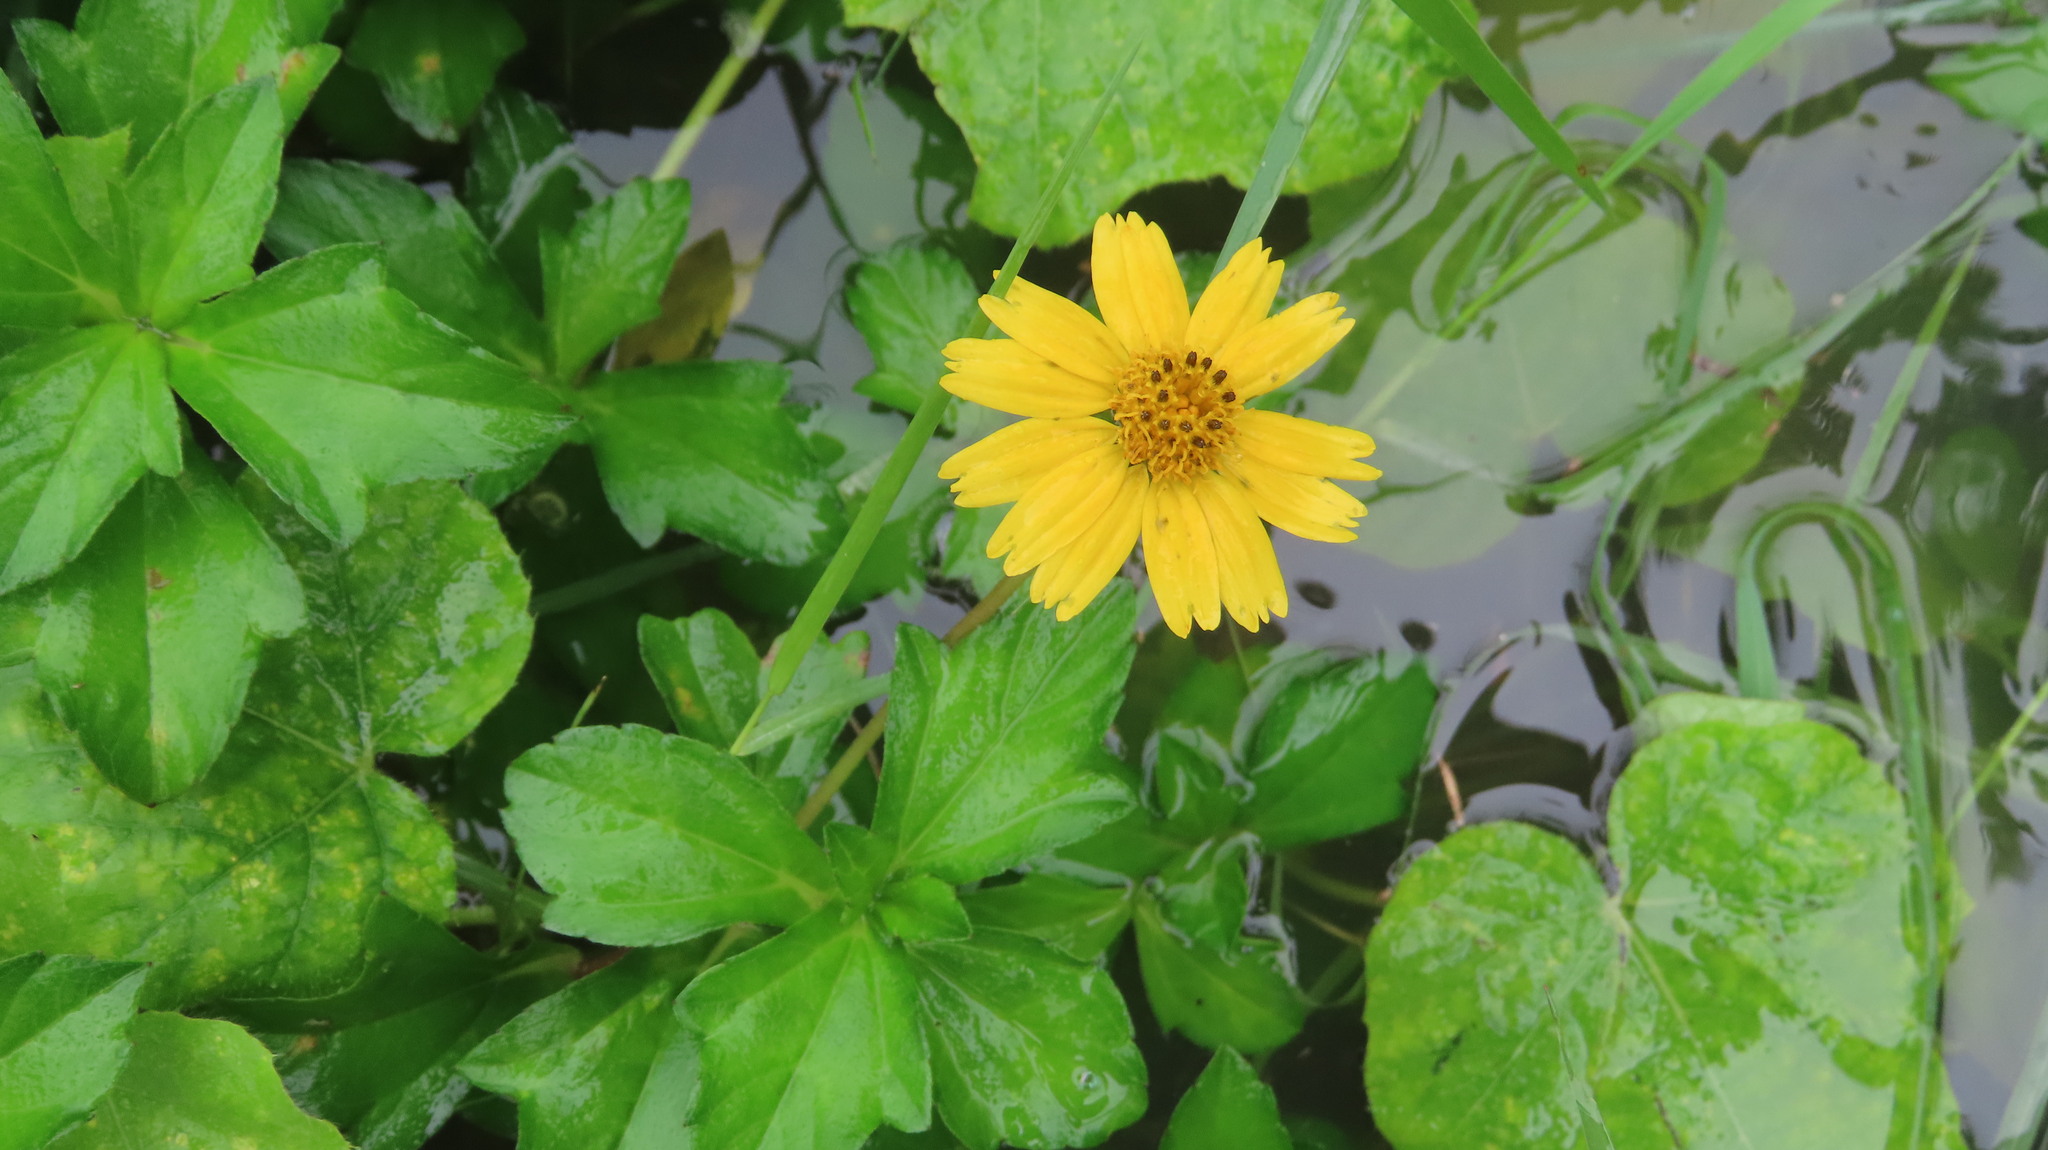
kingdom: Plantae
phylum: Tracheophyta
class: Magnoliopsida
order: Asterales
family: Asteraceae
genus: Sphagneticola
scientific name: Sphagneticola trilobata
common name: Bay biscayne creeping-oxeye
